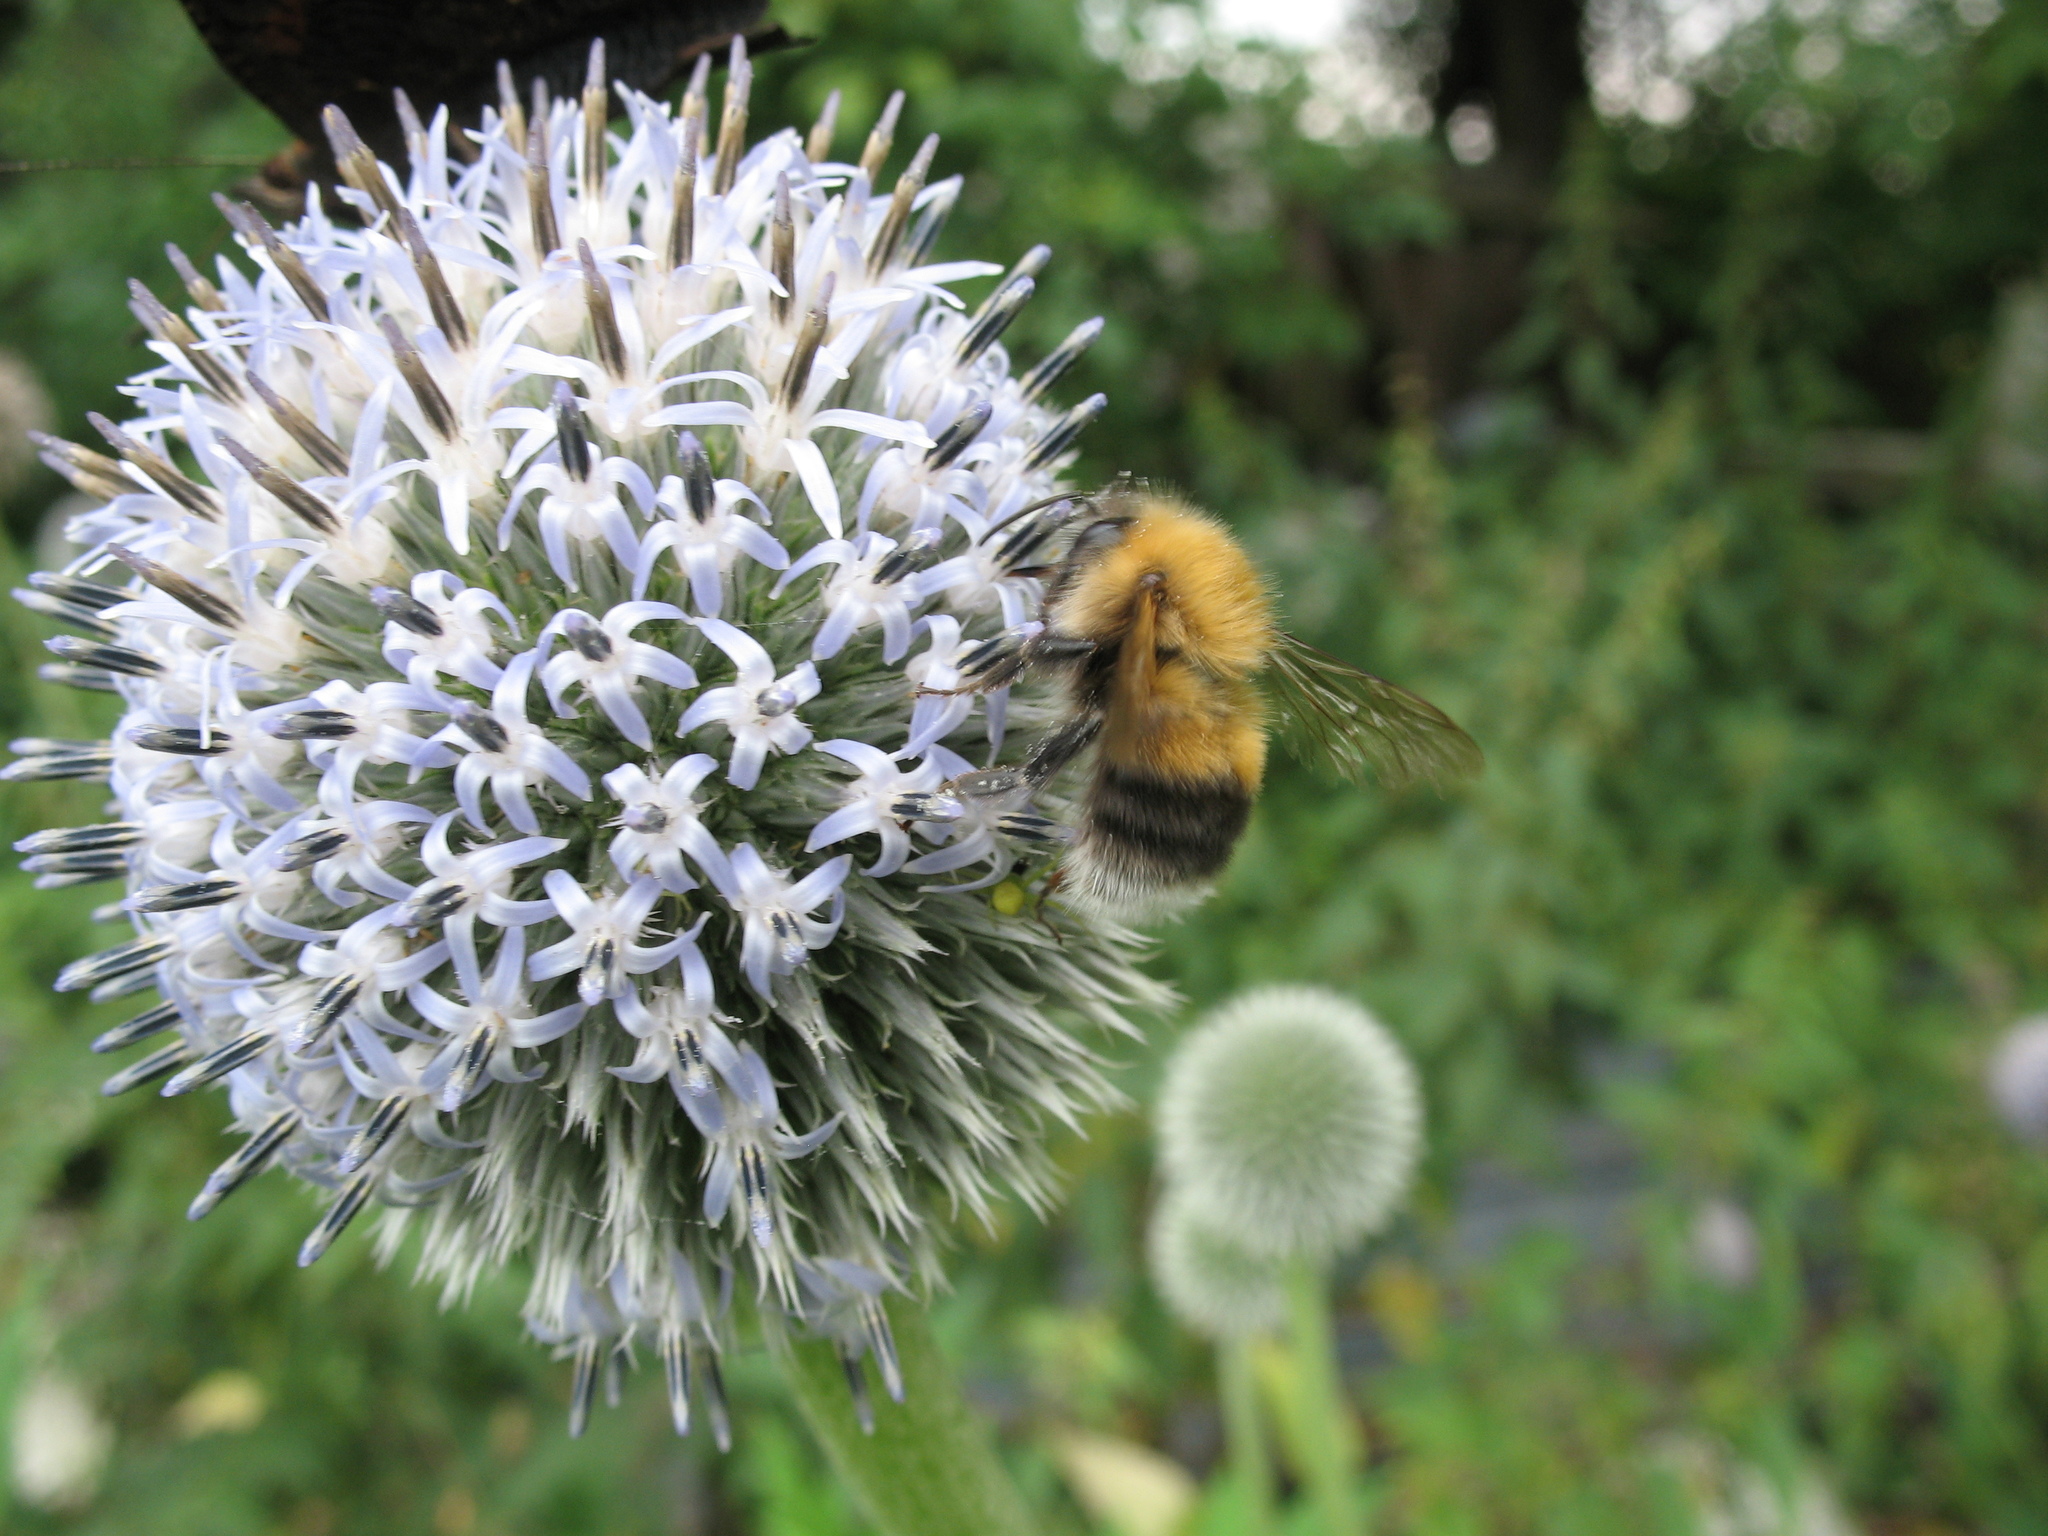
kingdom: Animalia
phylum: Arthropoda
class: Insecta
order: Hymenoptera
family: Apidae
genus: Bombus
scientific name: Bombus hypnorum
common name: New garden bumblebee
